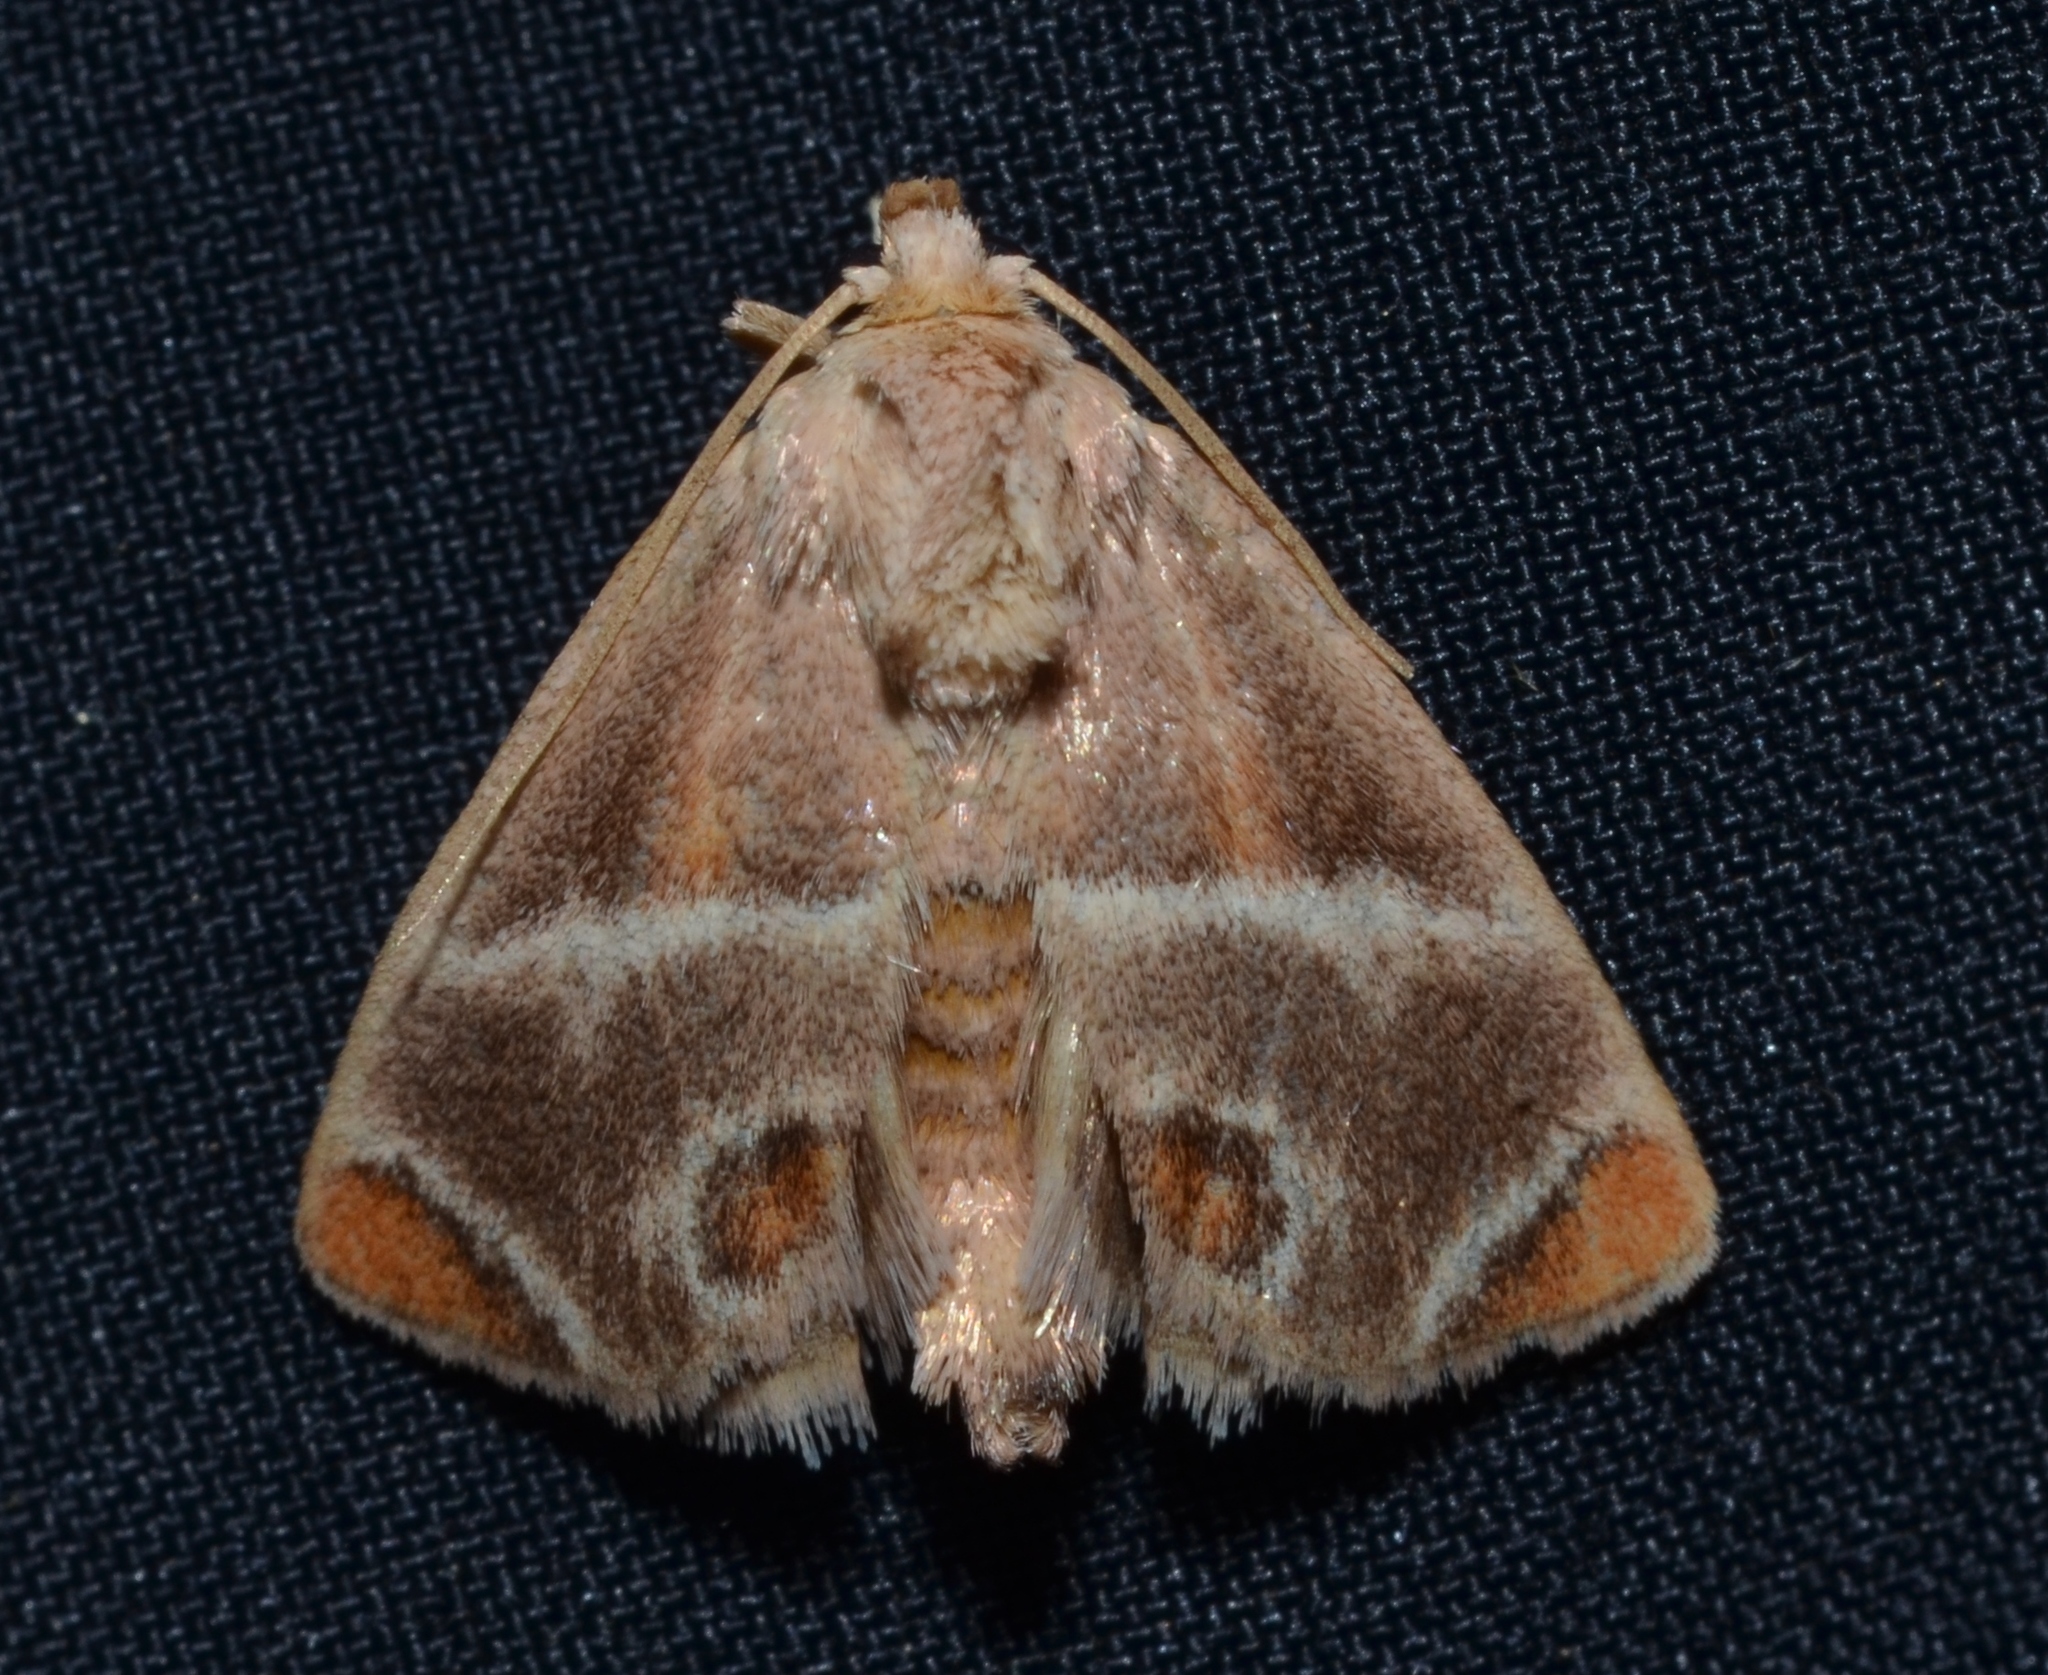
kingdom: Animalia
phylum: Arthropoda
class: Insecta
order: Lepidoptera
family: Limacodidae
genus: Apoda
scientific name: Apoda biguttata
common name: Shagreened slug moth
